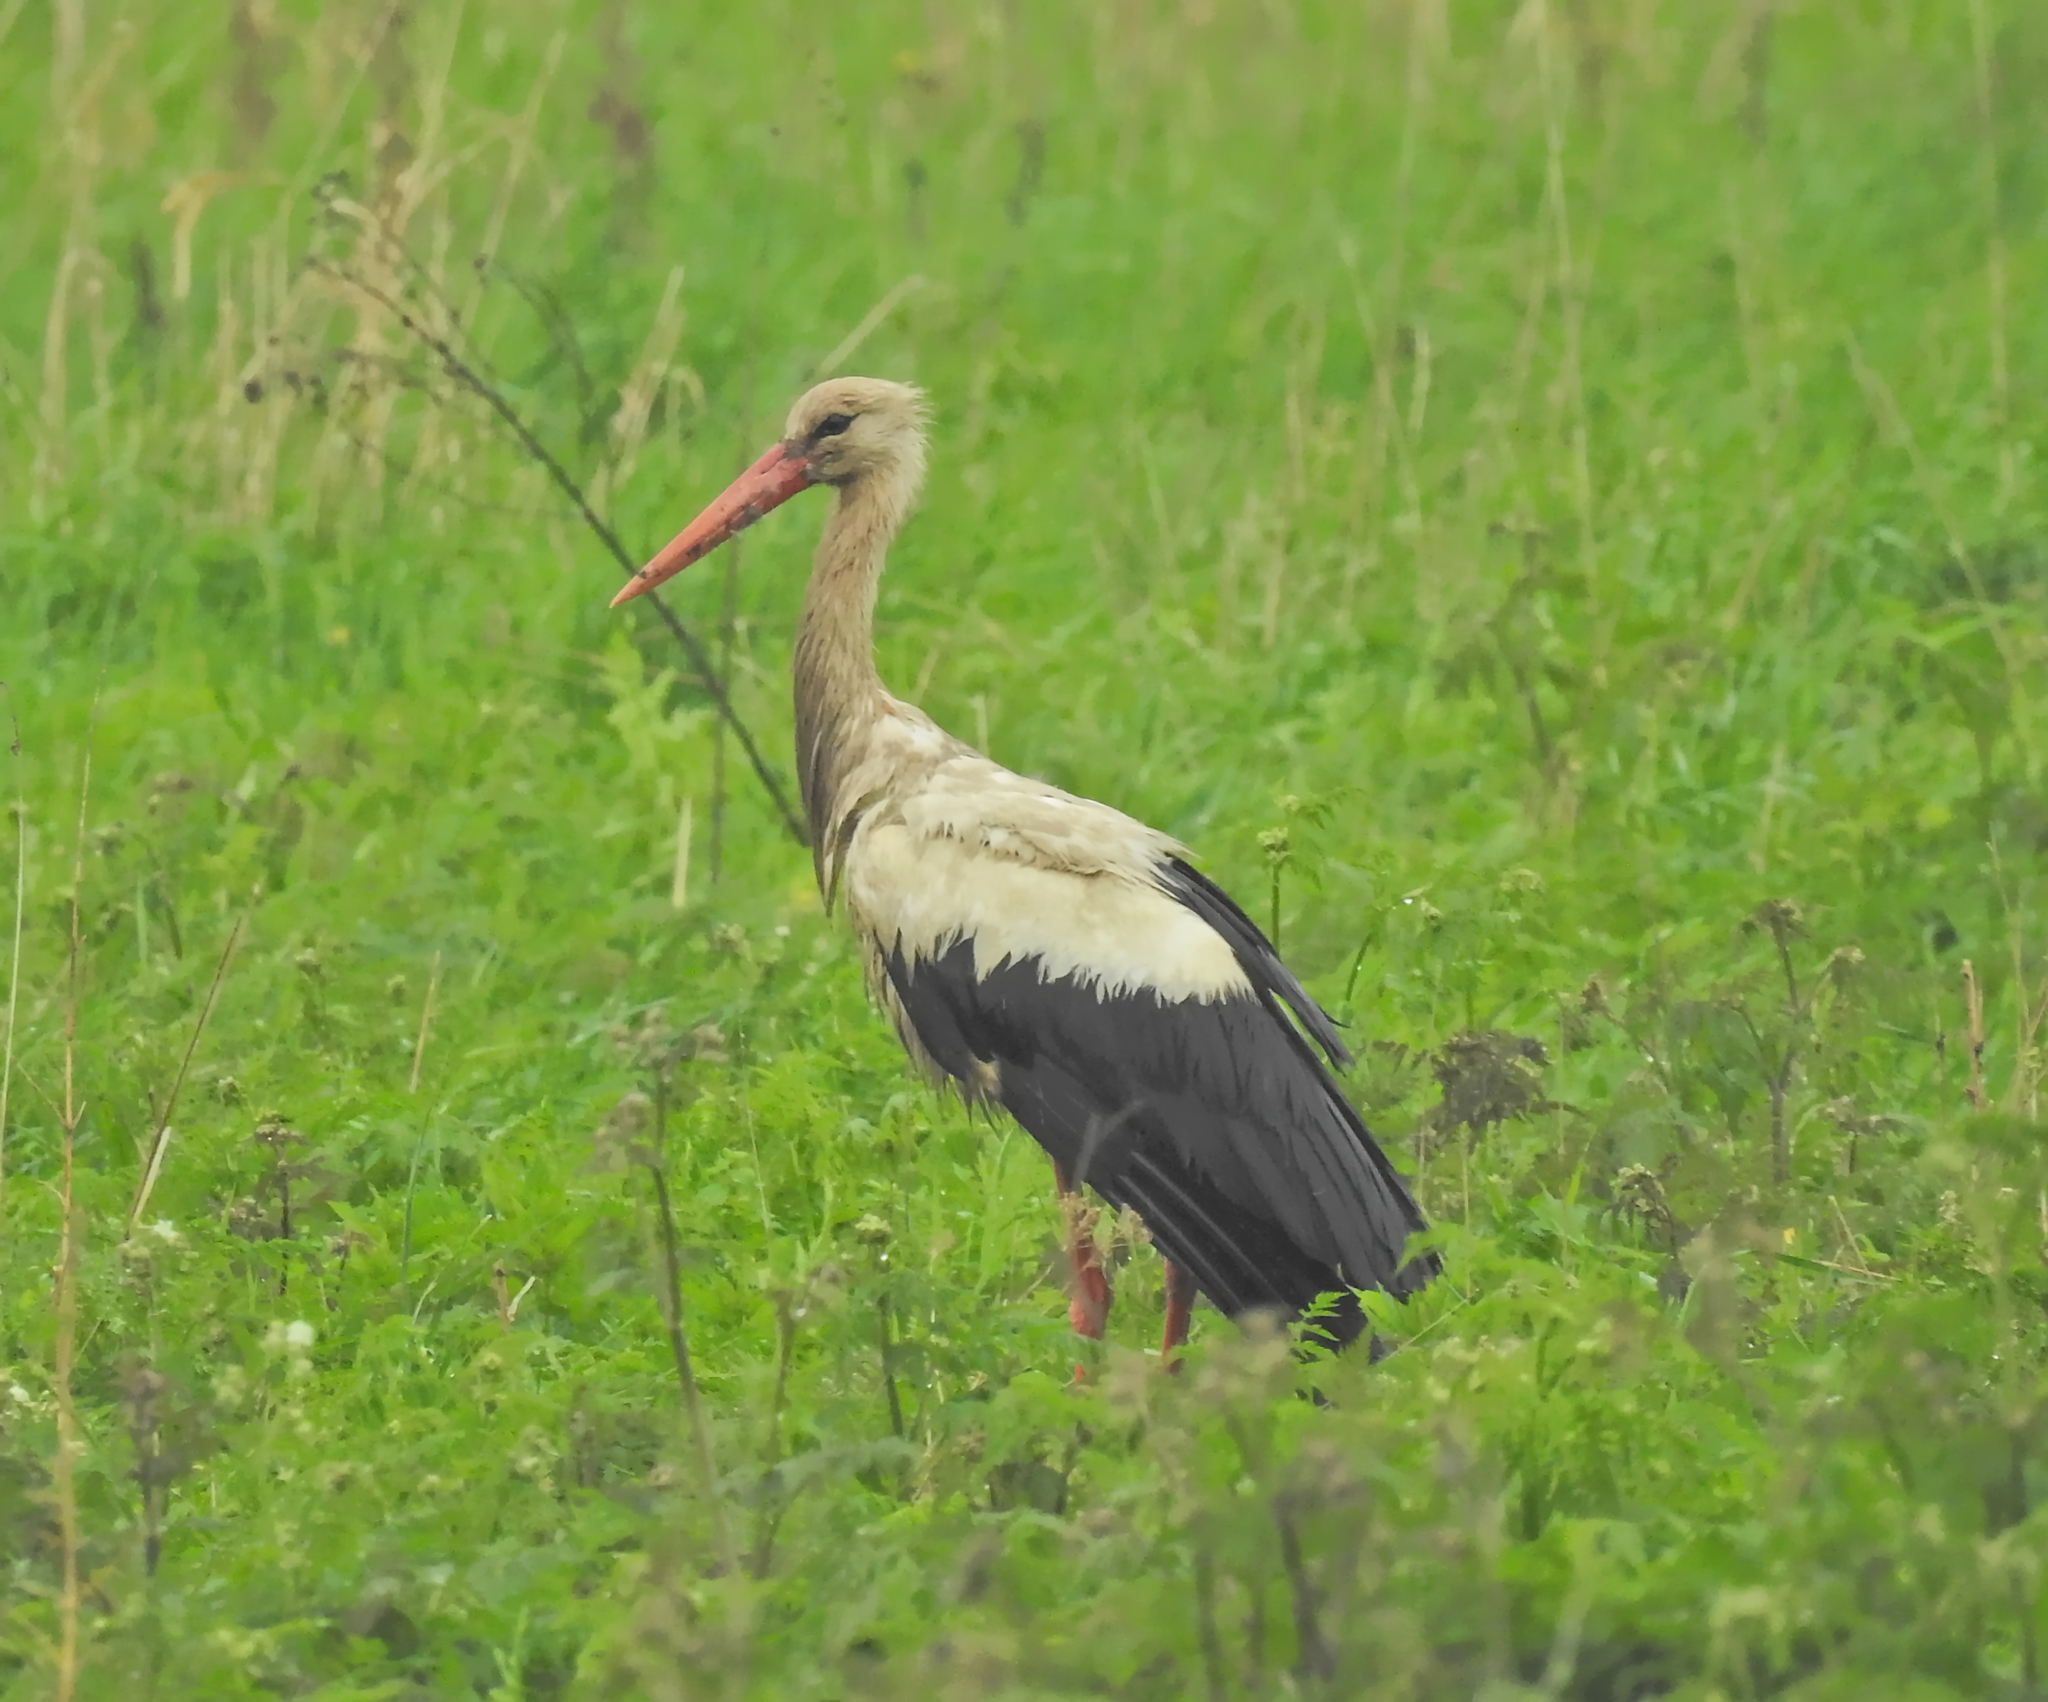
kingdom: Animalia
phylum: Chordata
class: Aves
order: Ciconiiformes
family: Ciconiidae
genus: Ciconia
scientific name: Ciconia ciconia
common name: White stork
